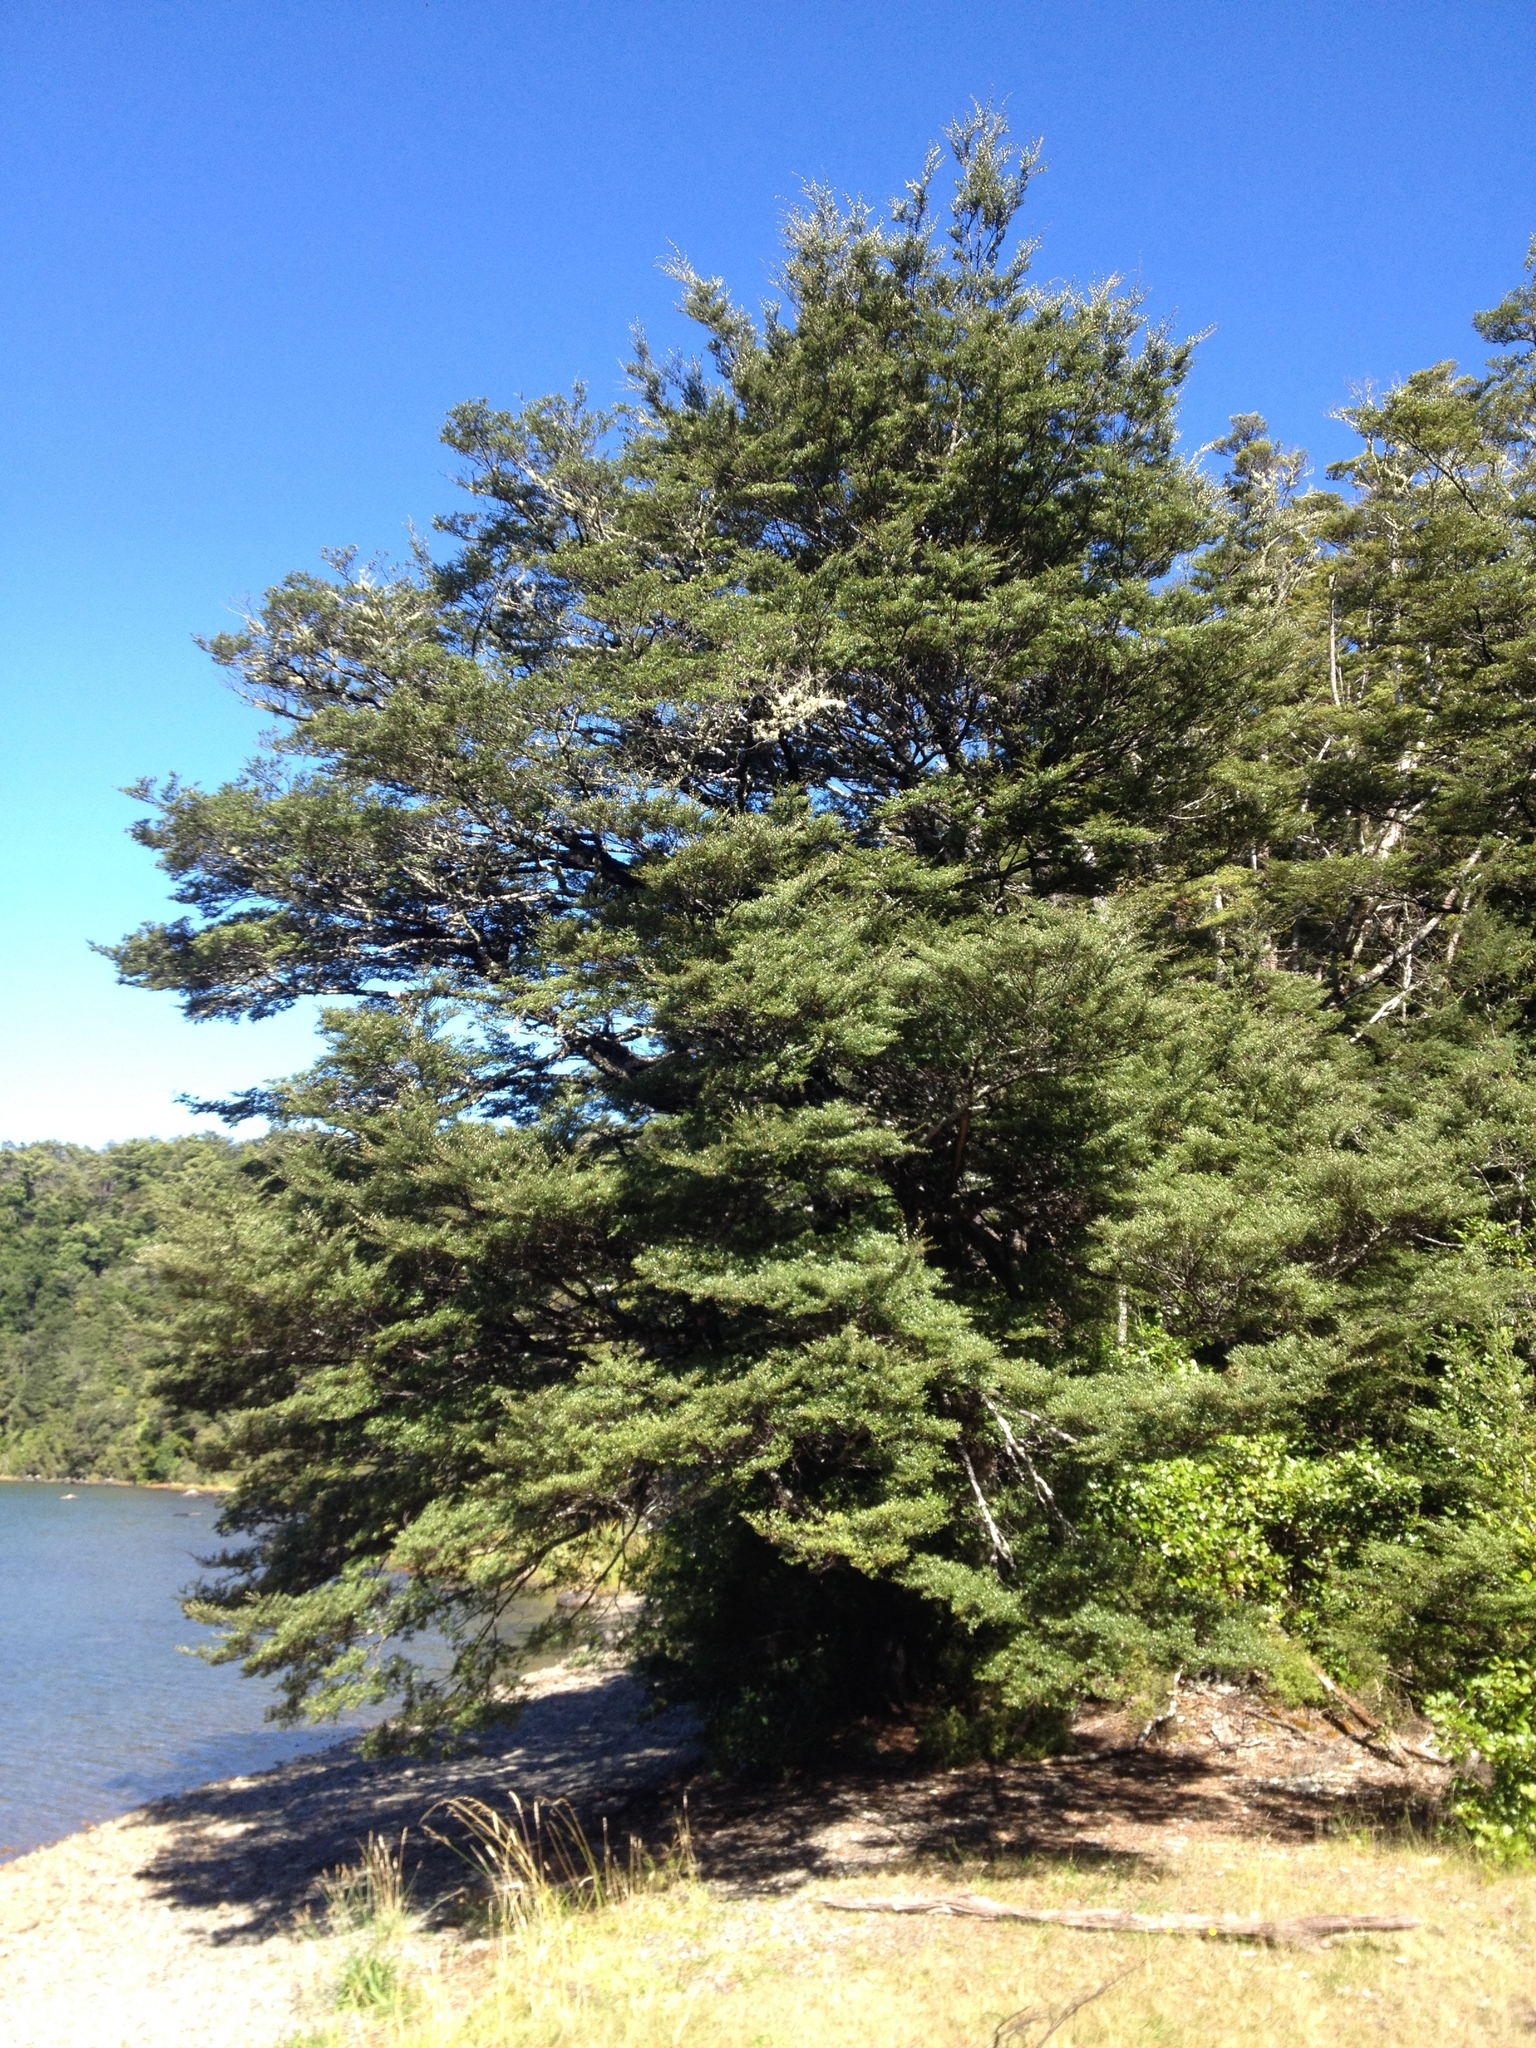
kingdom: Plantae
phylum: Tracheophyta
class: Magnoliopsida
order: Fagales
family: Nothofagaceae
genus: Nothofagus
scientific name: Nothofagus cliffortioides
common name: Mountain beech
